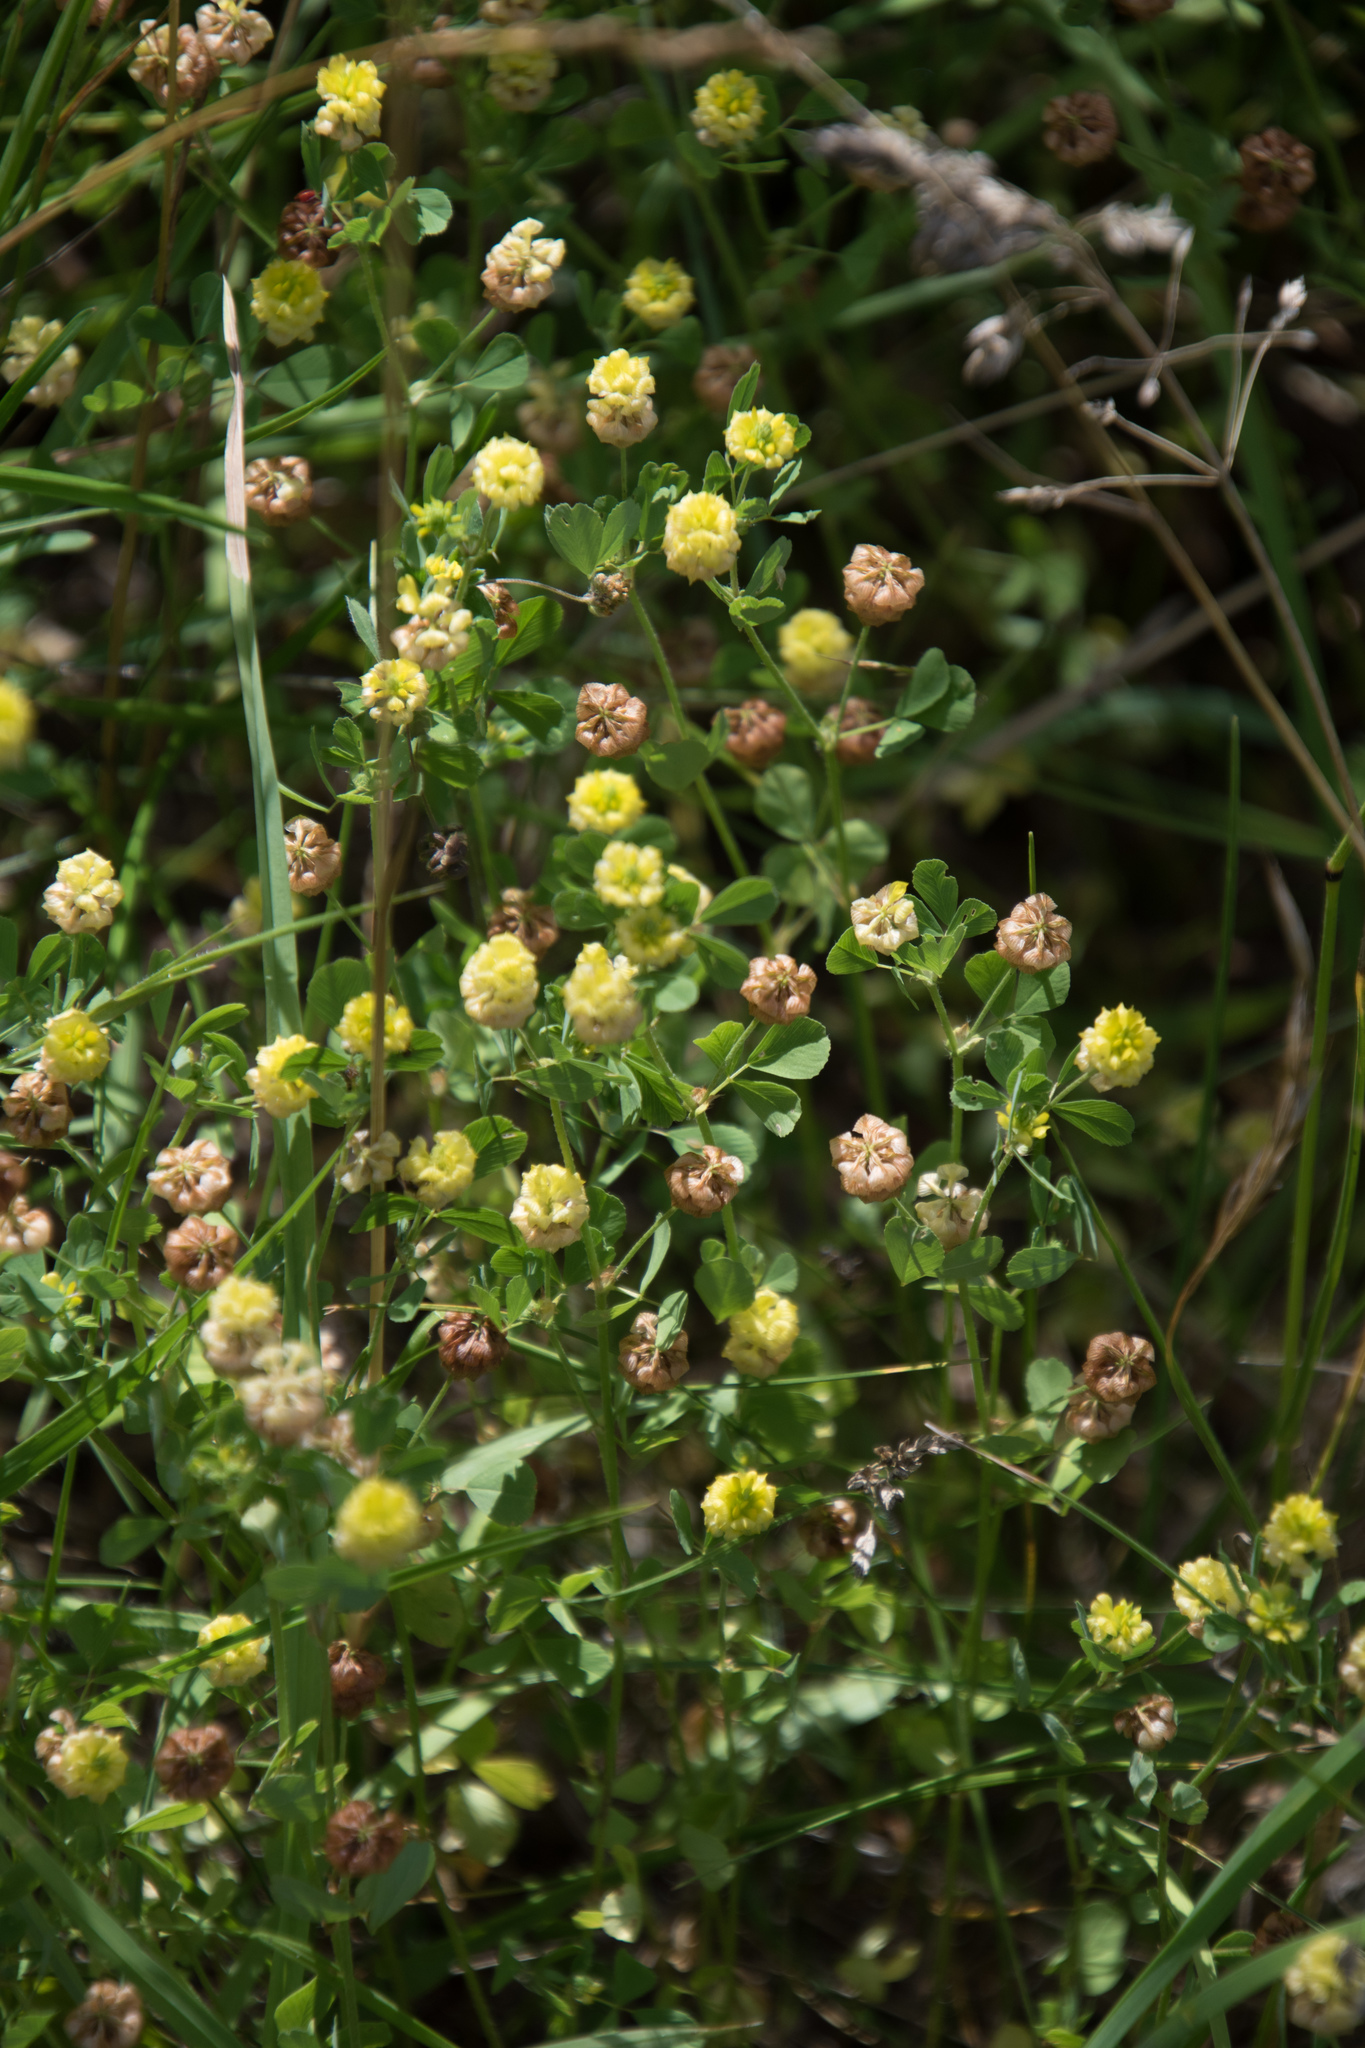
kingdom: Plantae
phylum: Tracheophyta
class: Magnoliopsida
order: Fabales
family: Fabaceae
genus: Trifolium
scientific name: Trifolium campestre
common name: Field clover
